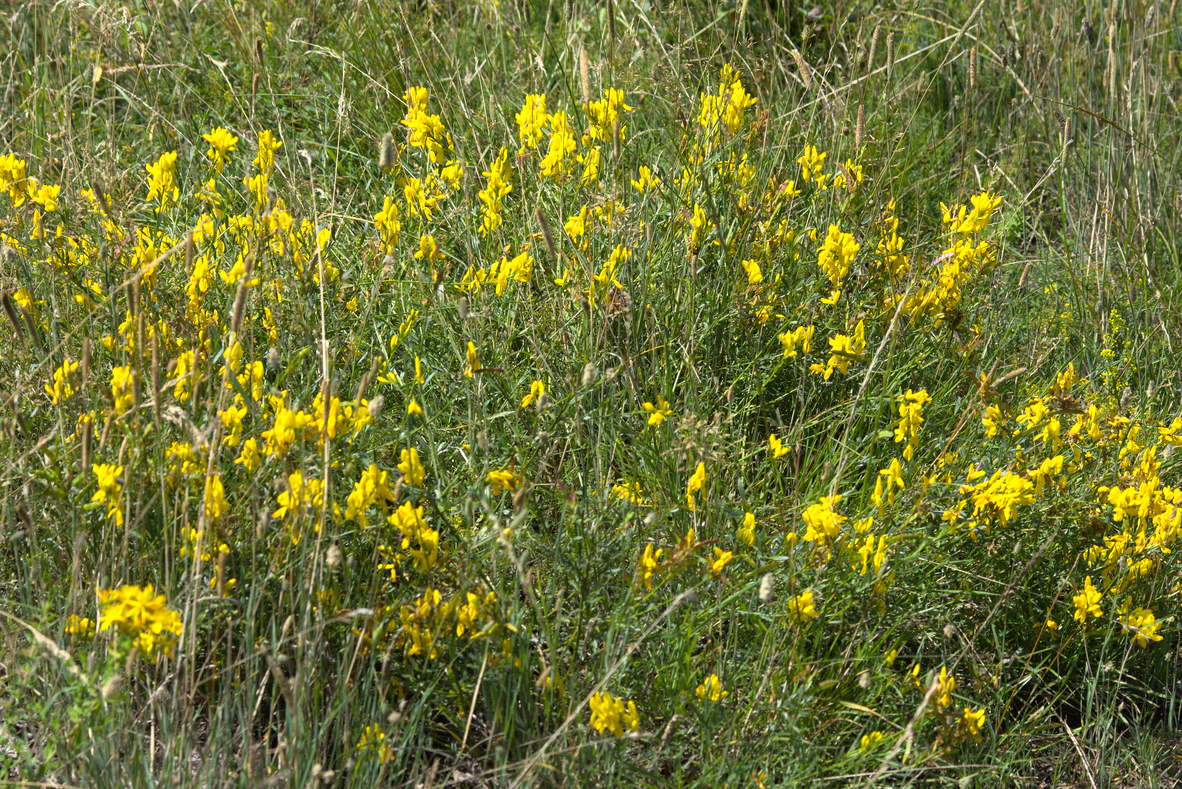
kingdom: Plantae
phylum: Tracheophyta
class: Magnoliopsida
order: Fabales
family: Fabaceae
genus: Genista
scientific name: Genista tinctoria
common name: Dyer's greenweed
